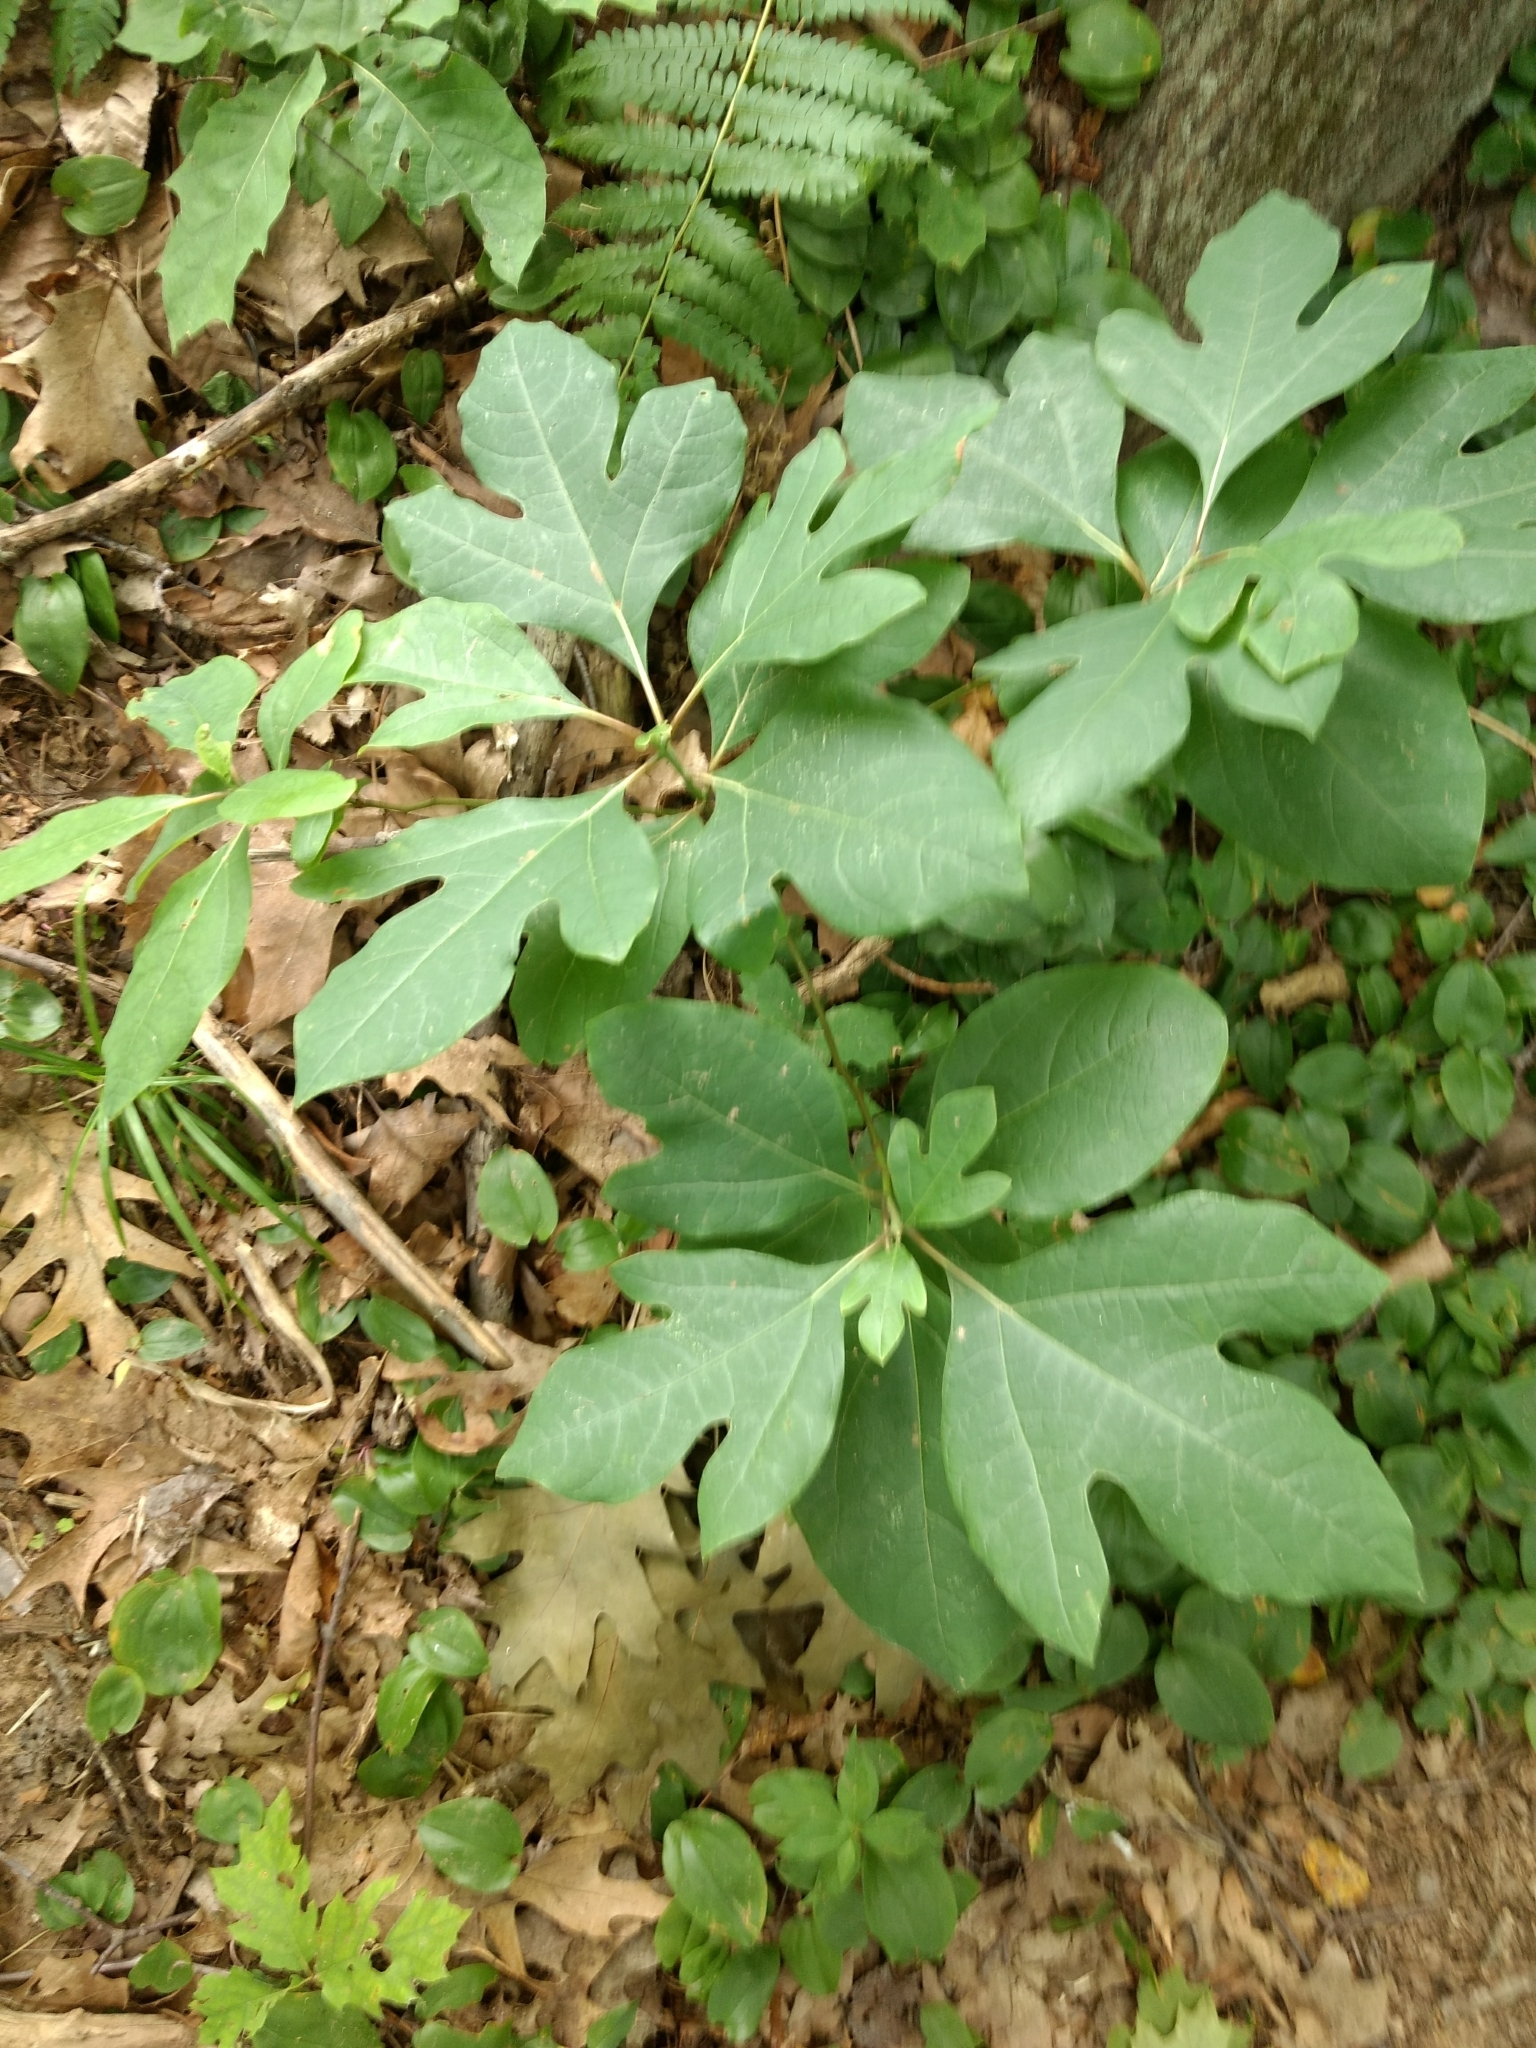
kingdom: Plantae
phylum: Tracheophyta
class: Magnoliopsida
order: Laurales
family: Lauraceae
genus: Sassafras
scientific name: Sassafras albidum
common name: Sassafras
